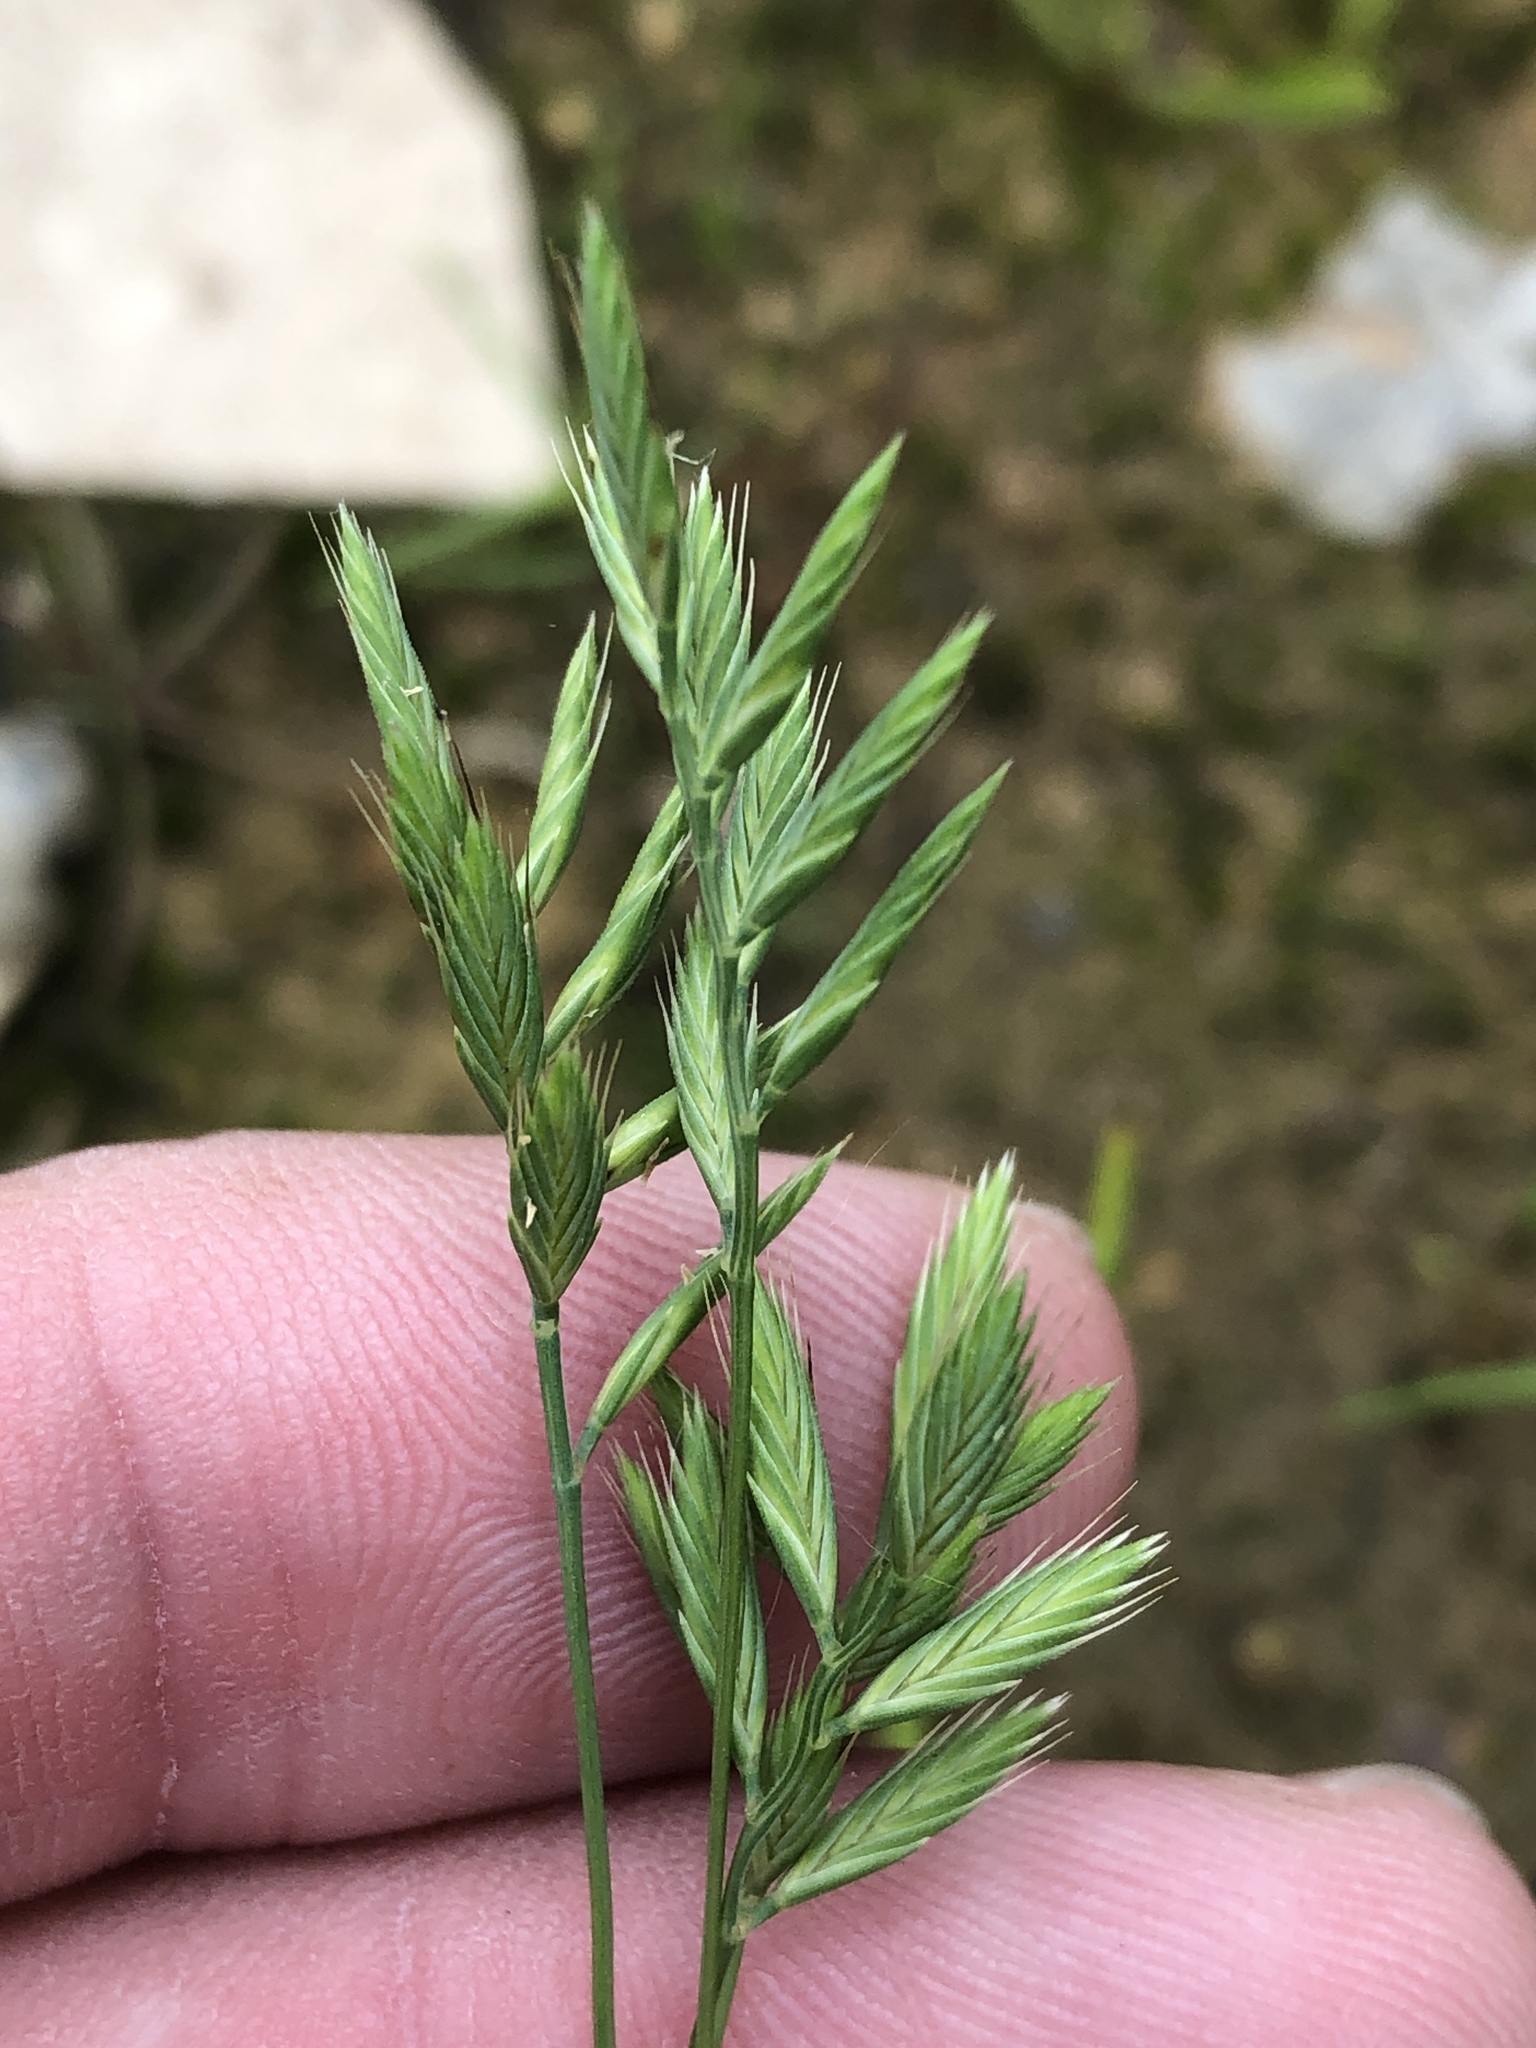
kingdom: Plantae
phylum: Tracheophyta
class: Liliopsida
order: Poales
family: Poaceae
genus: Festuca
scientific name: Festuca octoflora
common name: Sixweeks grass
